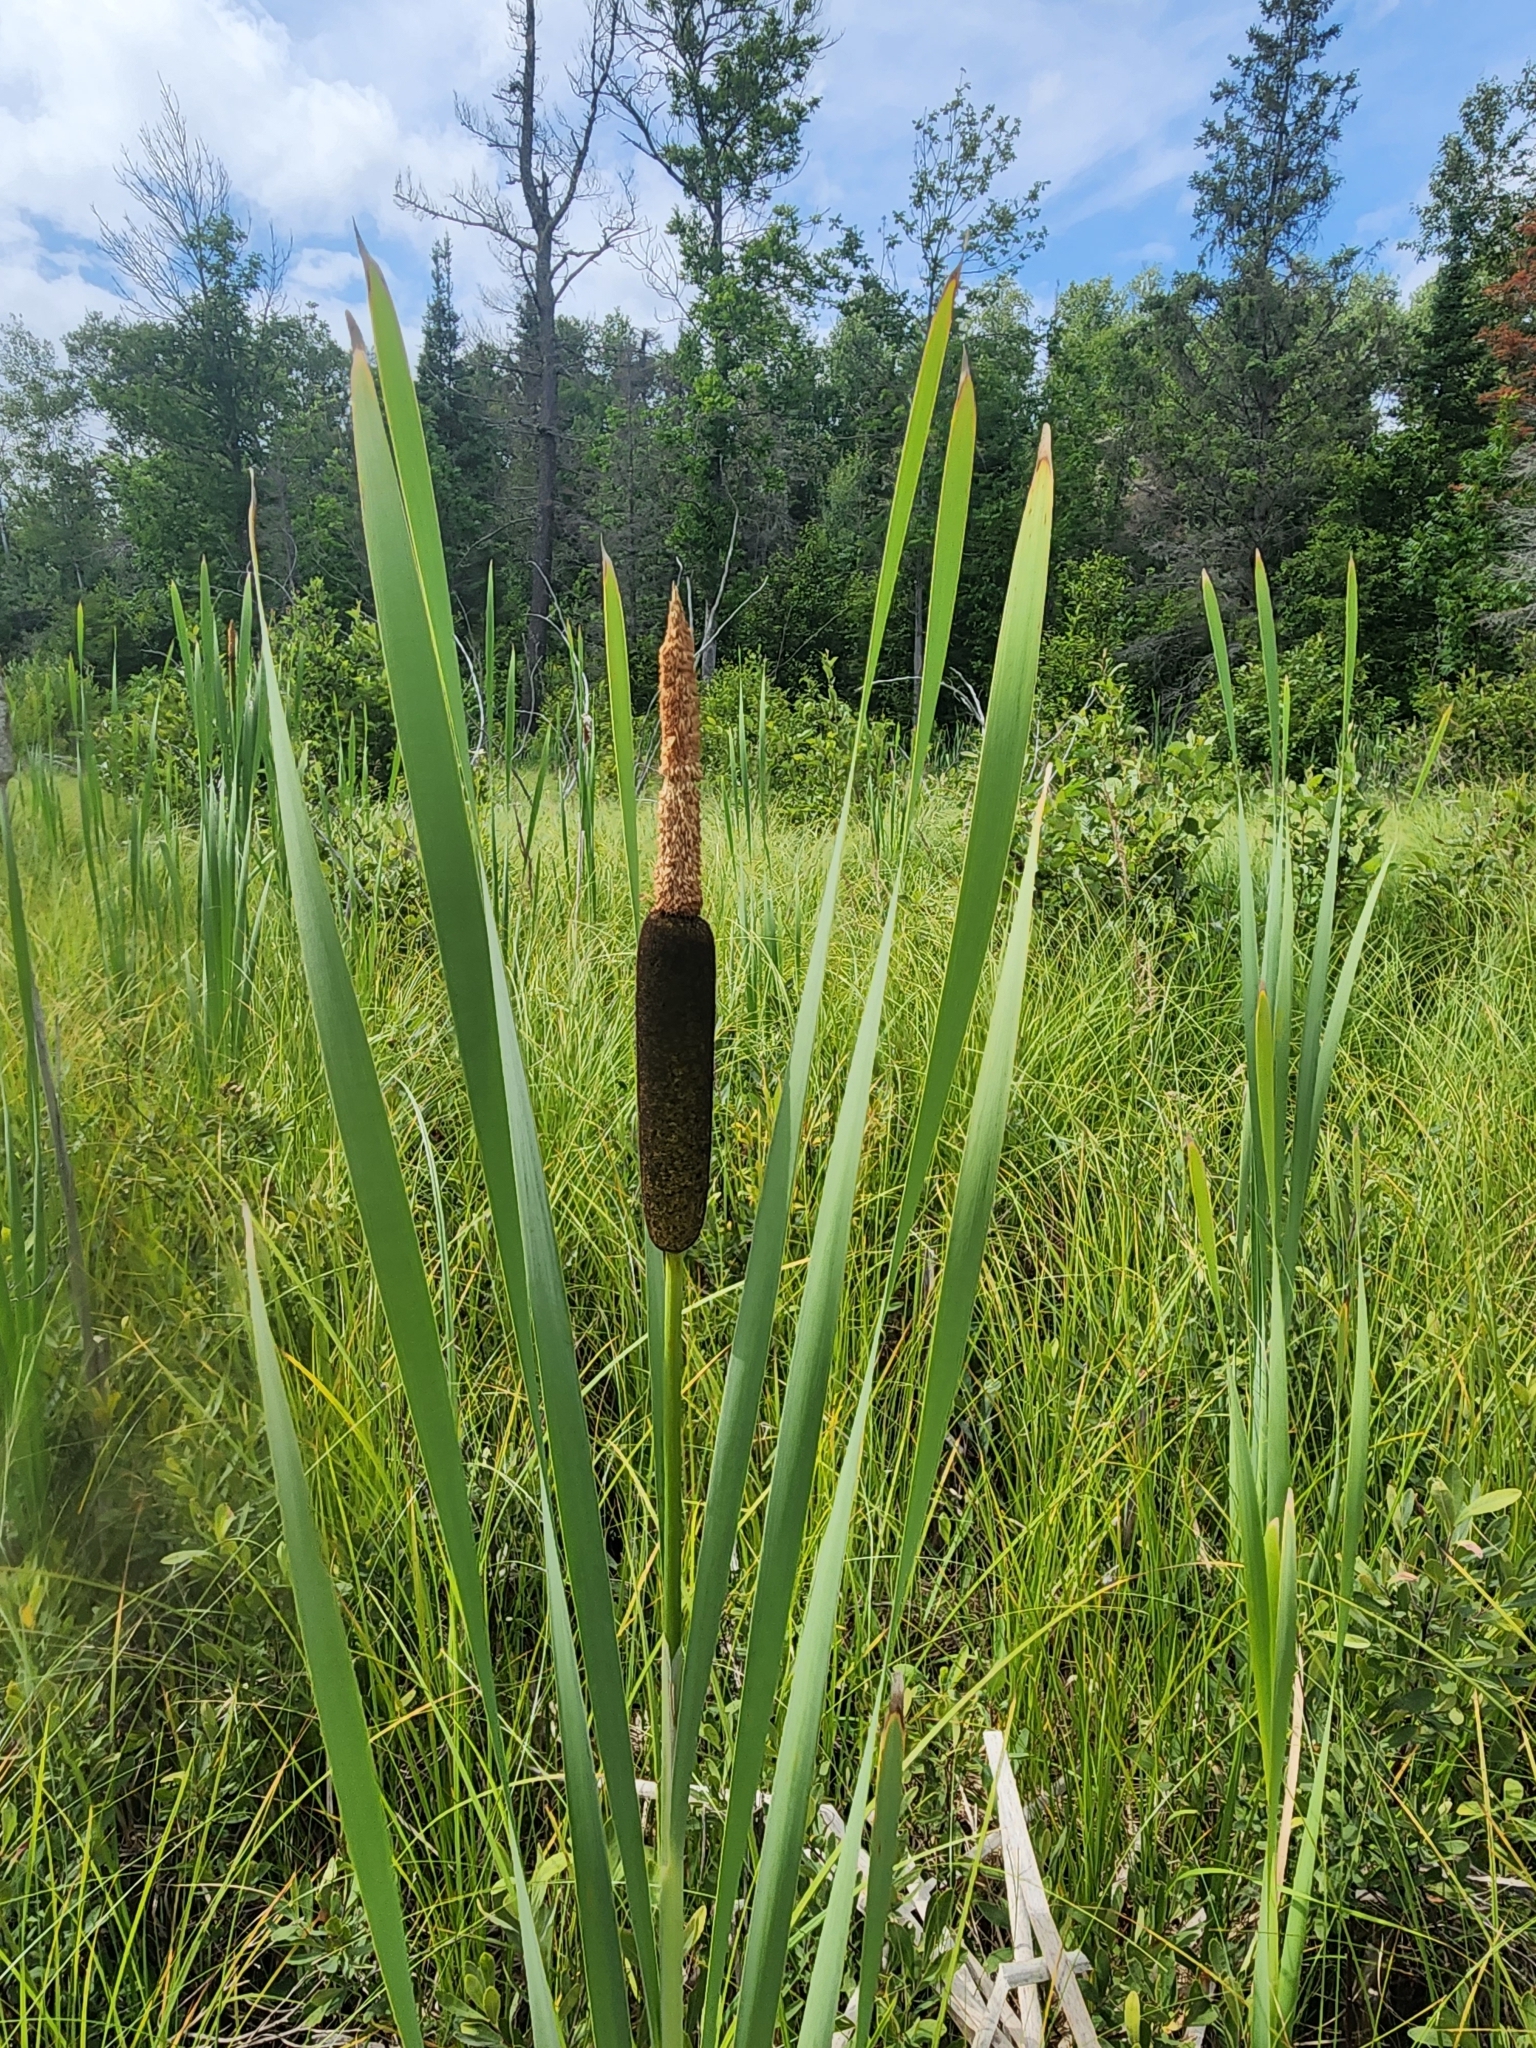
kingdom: Plantae
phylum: Tracheophyta
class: Liliopsida
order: Poales
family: Typhaceae
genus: Typha
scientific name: Typha latifolia
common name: Broadleaf cattail
